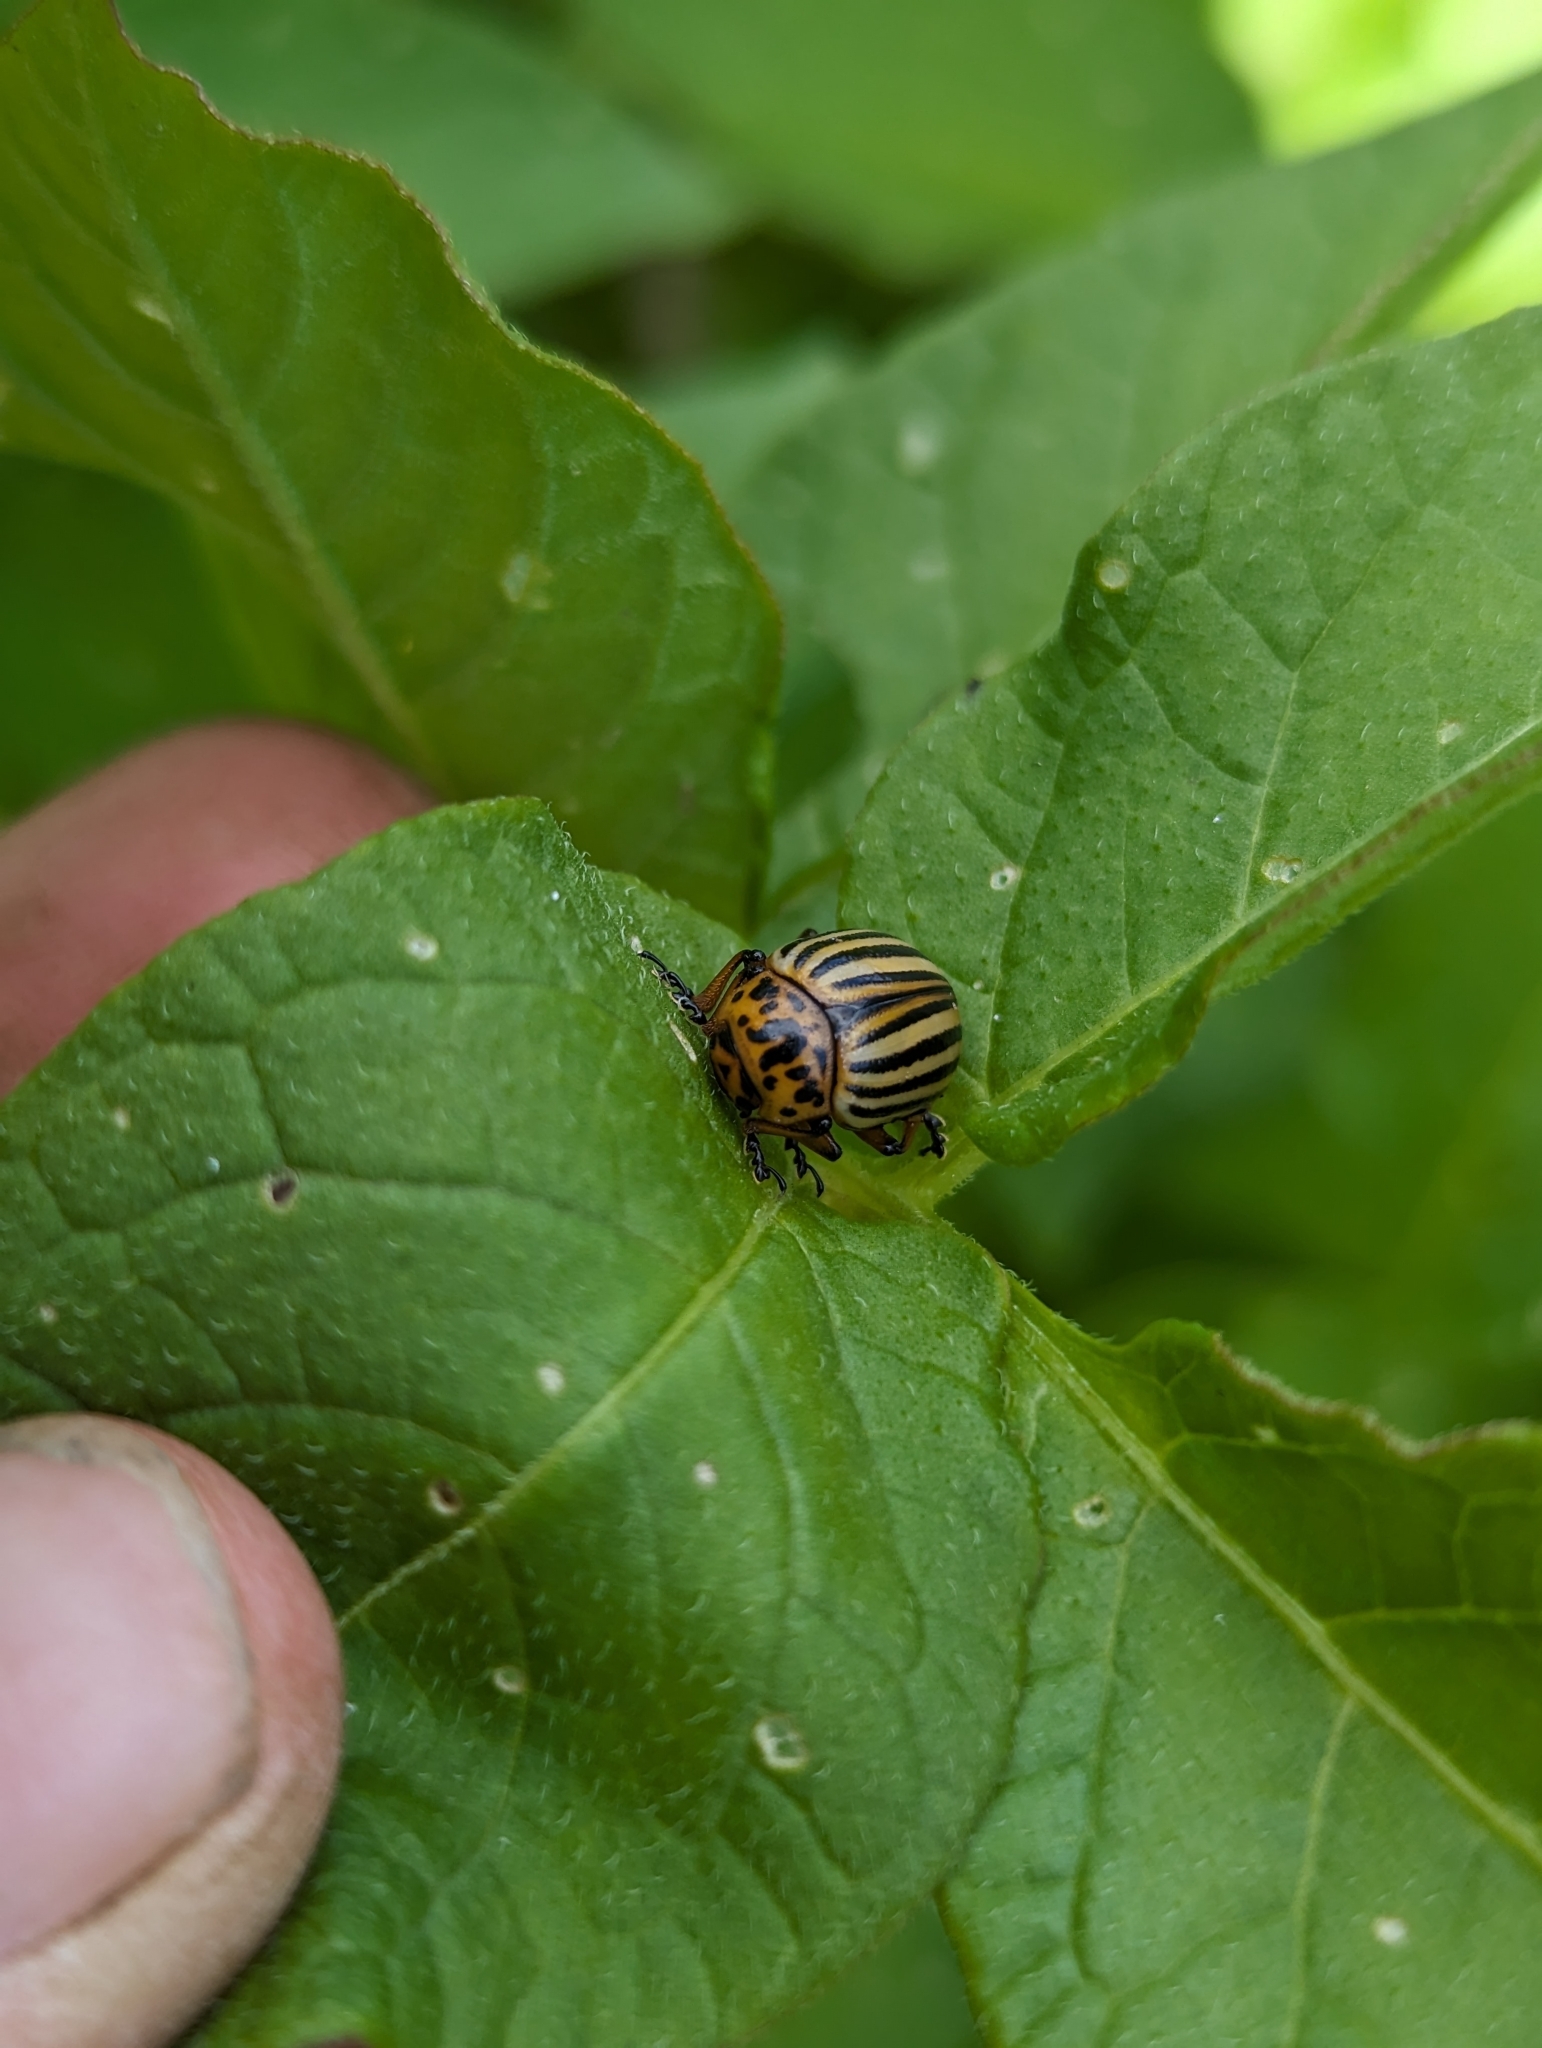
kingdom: Animalia
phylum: Arthropoda
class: Insecta
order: Coleoptera
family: Chrysomelidae
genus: Leptinotarsa
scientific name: Leptinotarsa decemlineata
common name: Colorado potato beetle
